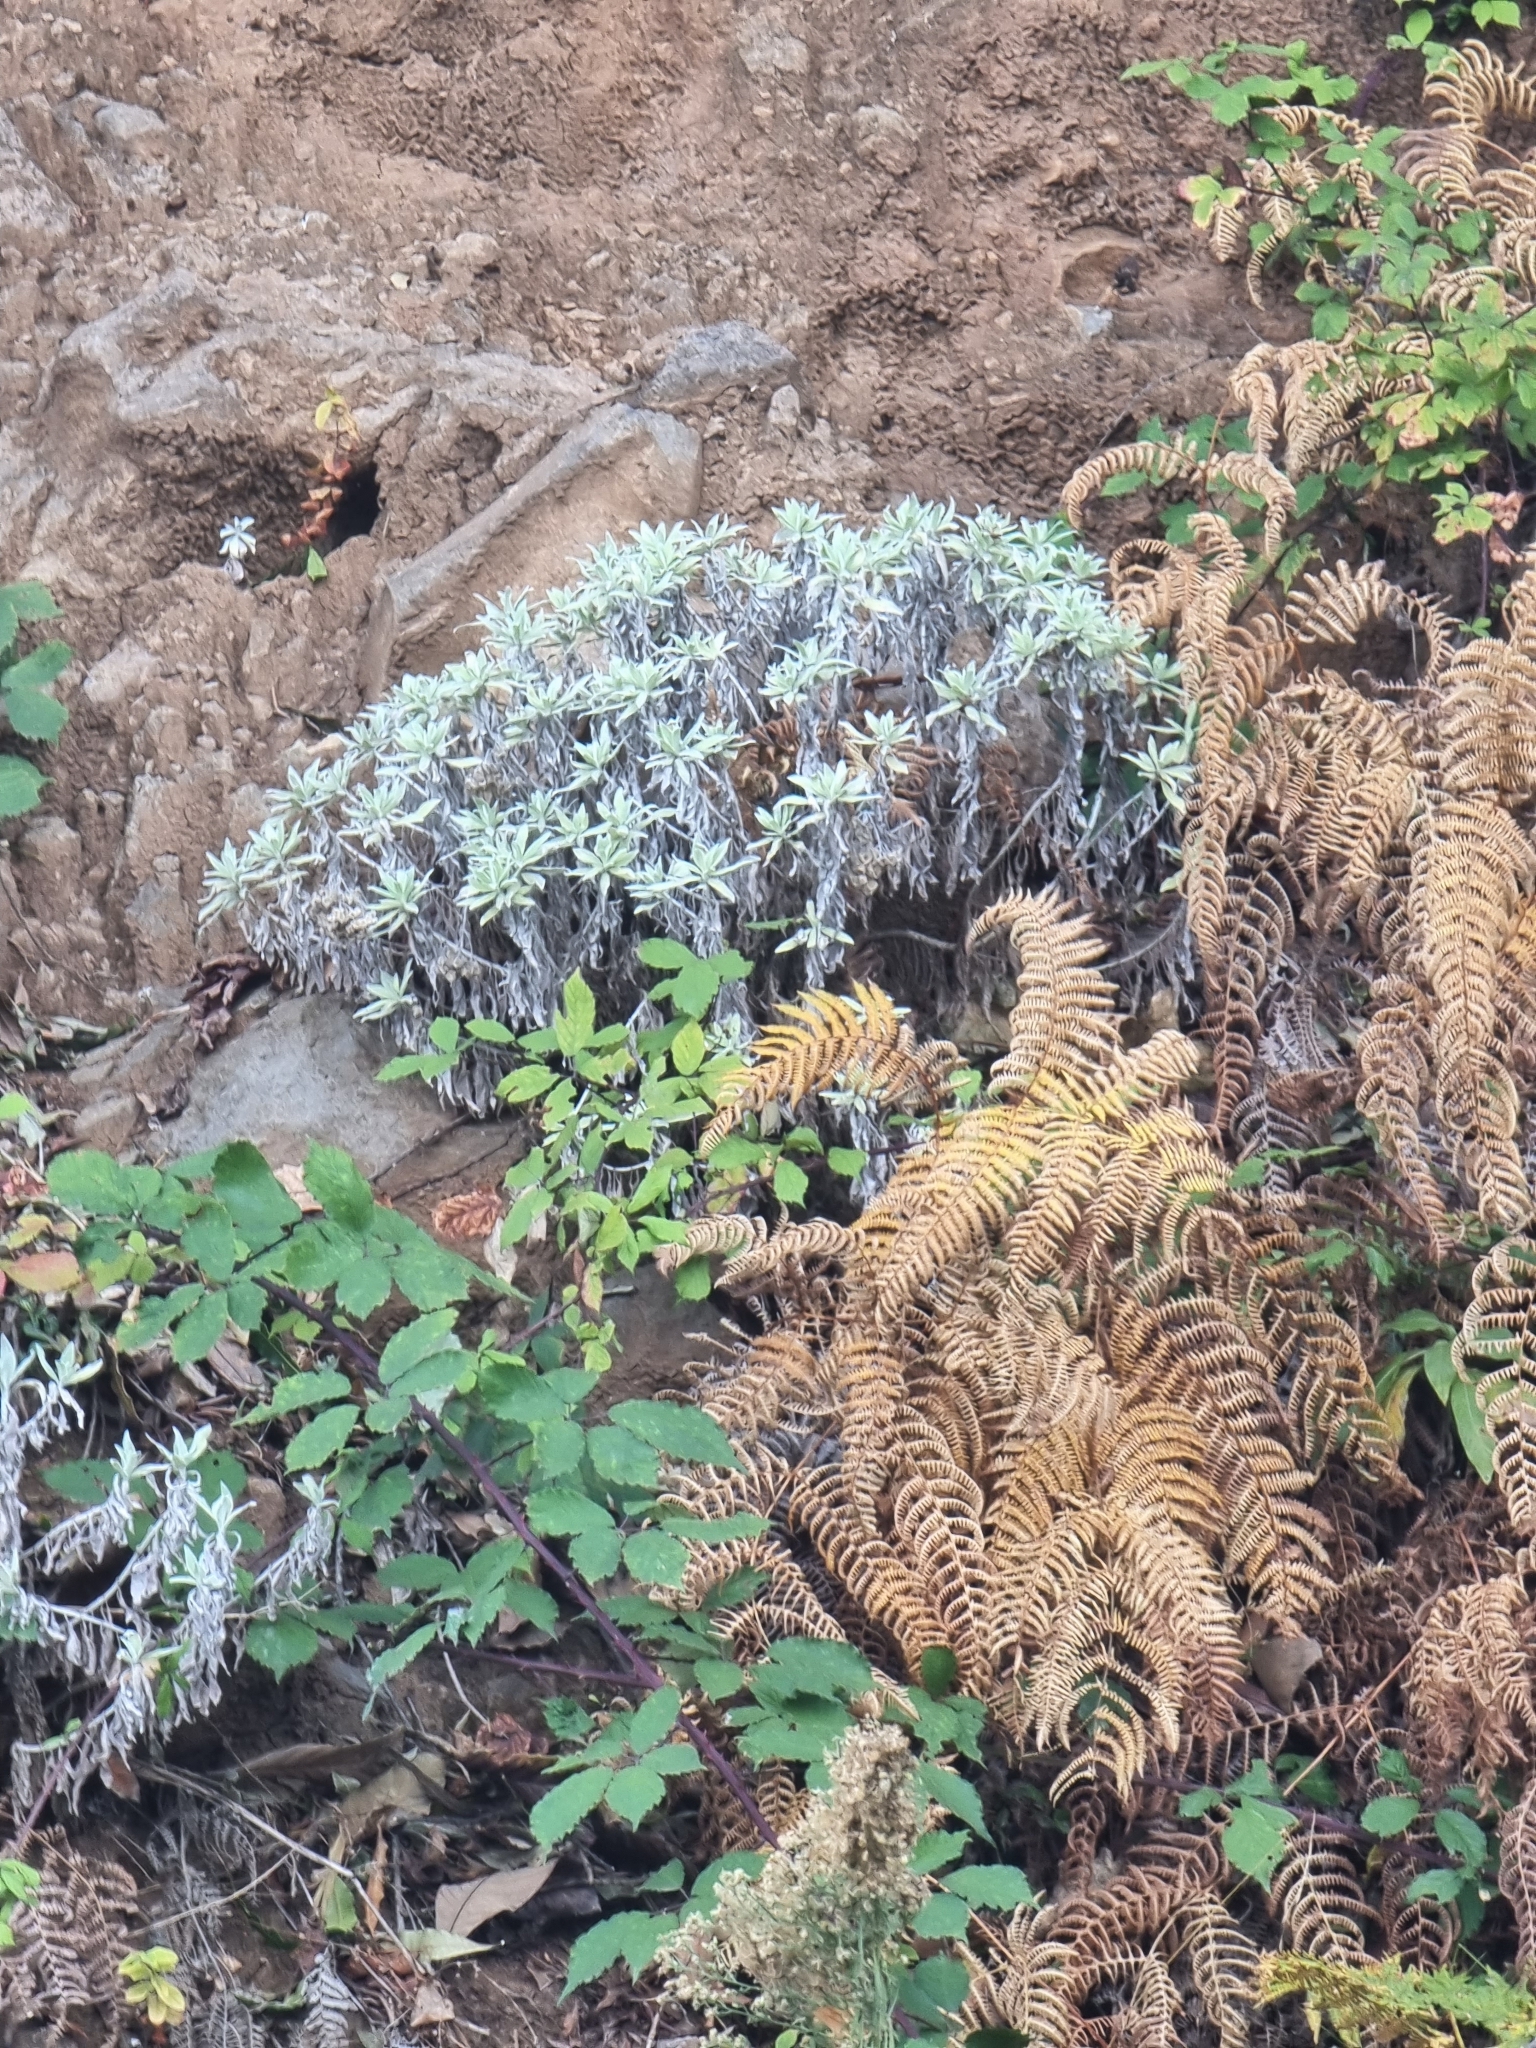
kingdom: Plantae
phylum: Tracheophyta
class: Magnoliopsida
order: Asterales
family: Asteraceae
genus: Helichrysum
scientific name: Helichrysum melaleucum
